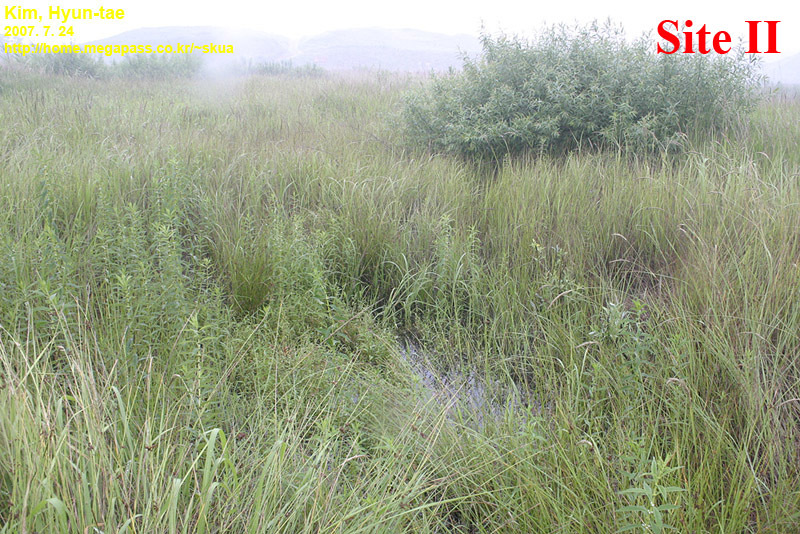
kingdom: Animalia
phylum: Chordata
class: Amphibia
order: Anura
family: Microhylidae
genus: Kaloula
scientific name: Kaloula borealis
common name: Boreal digging frog
